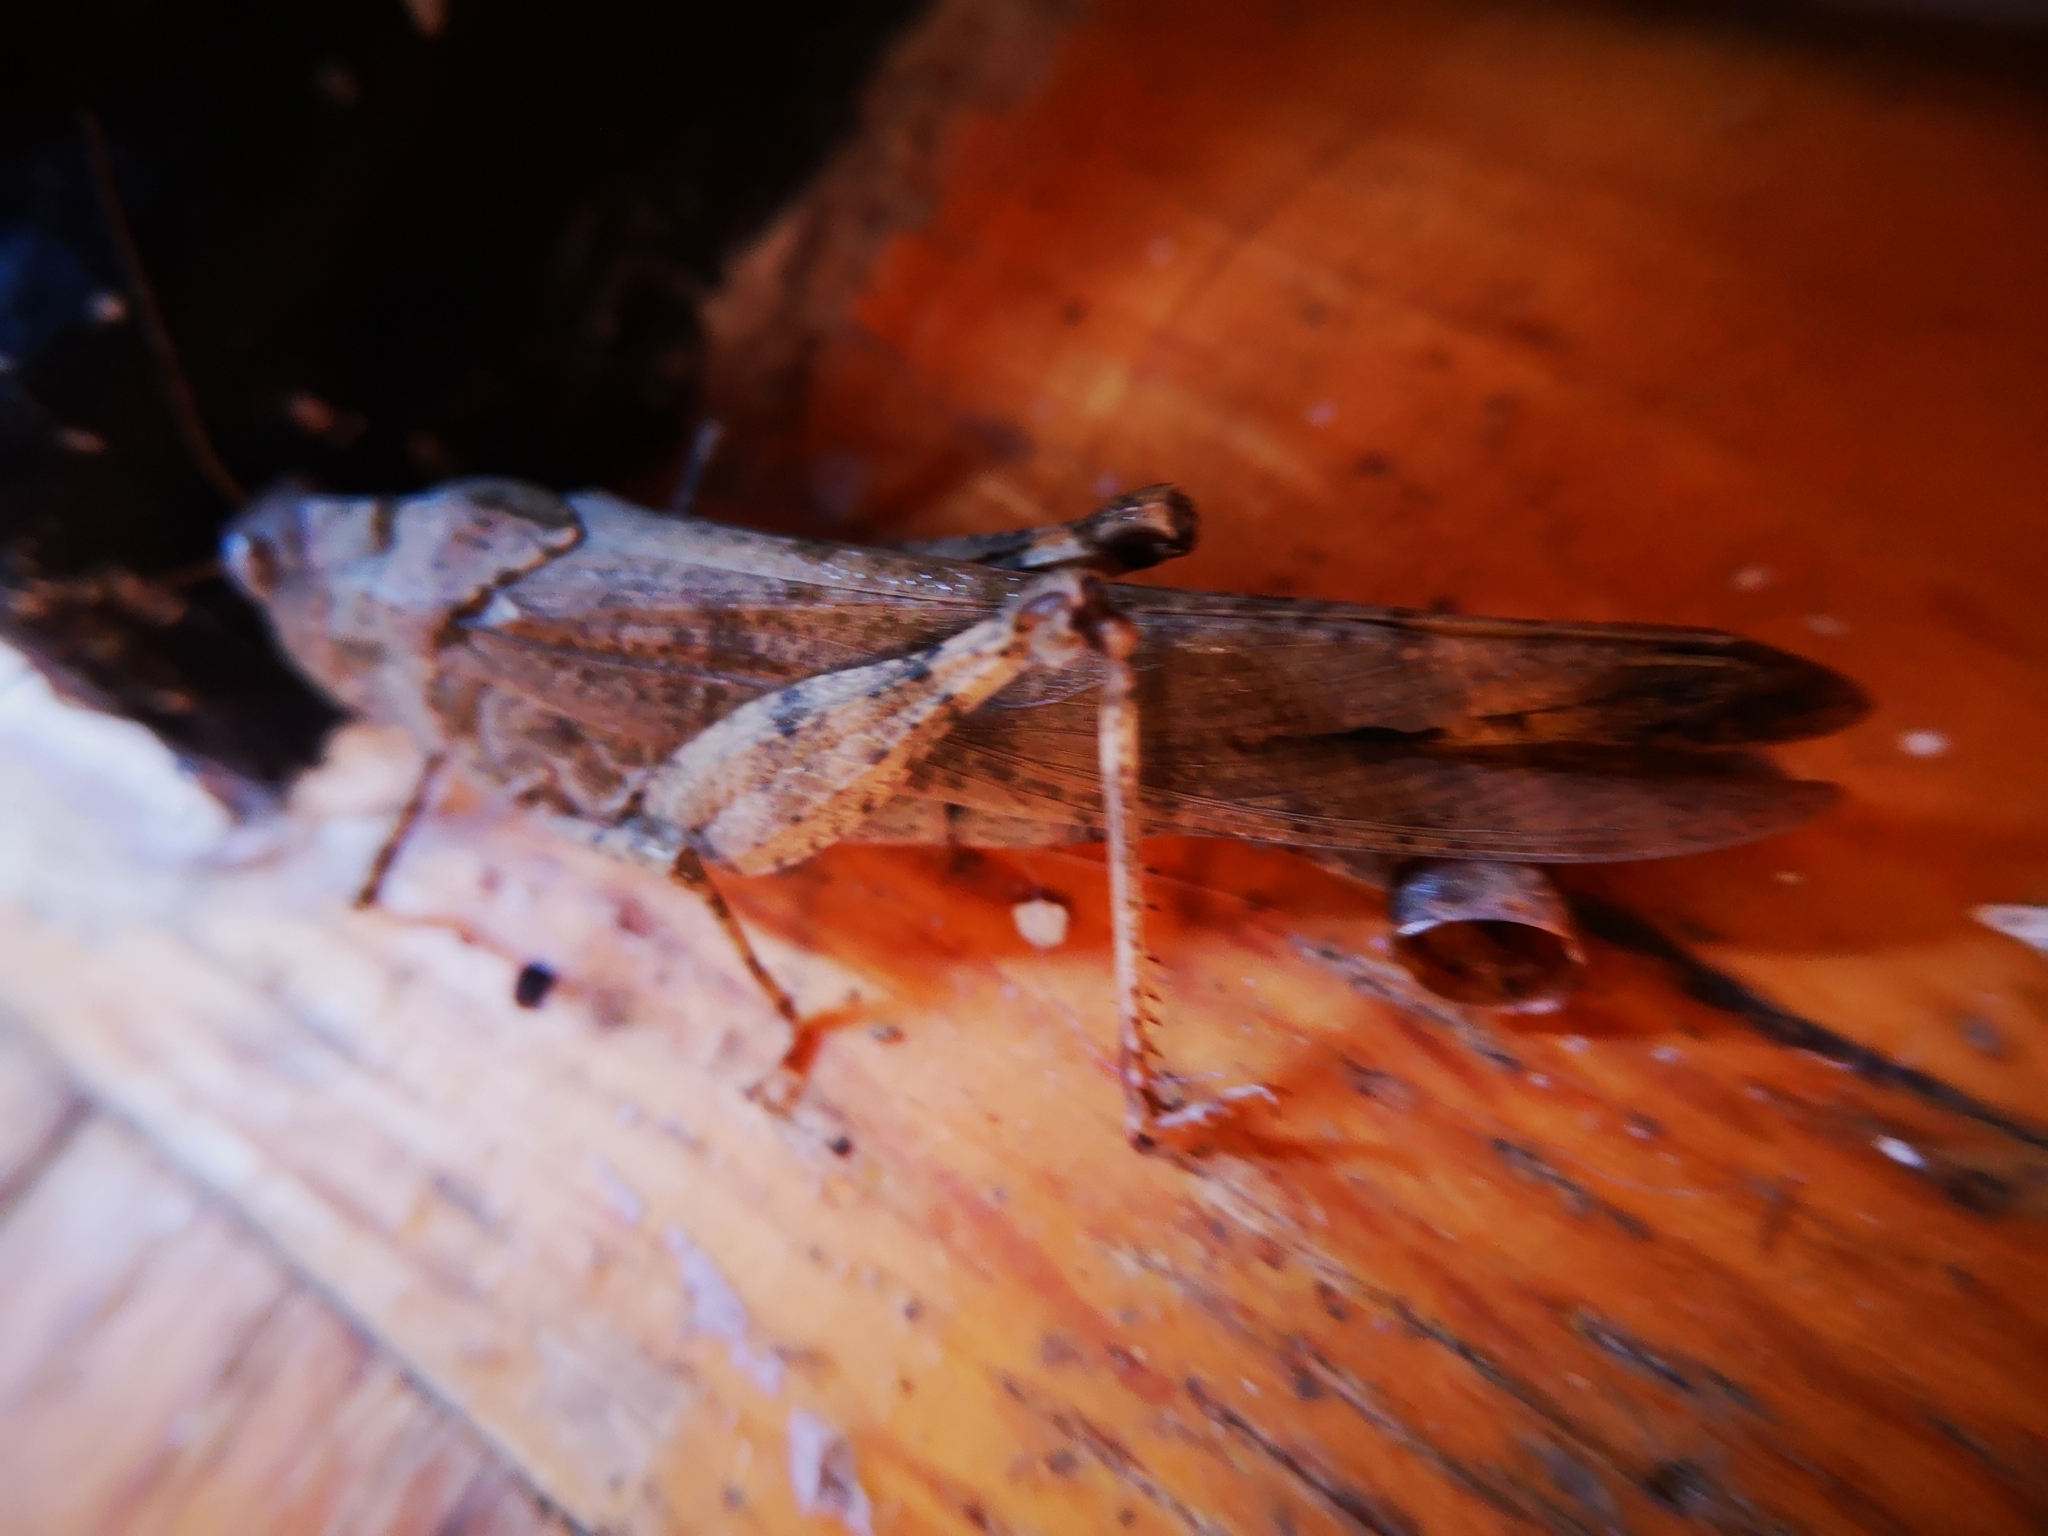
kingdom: Animalia
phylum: Arthropoda
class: Insecta
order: Orthoptera
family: Acrididae
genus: Dissosteira
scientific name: Dissosteira carolina
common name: Carolina grasshopper
